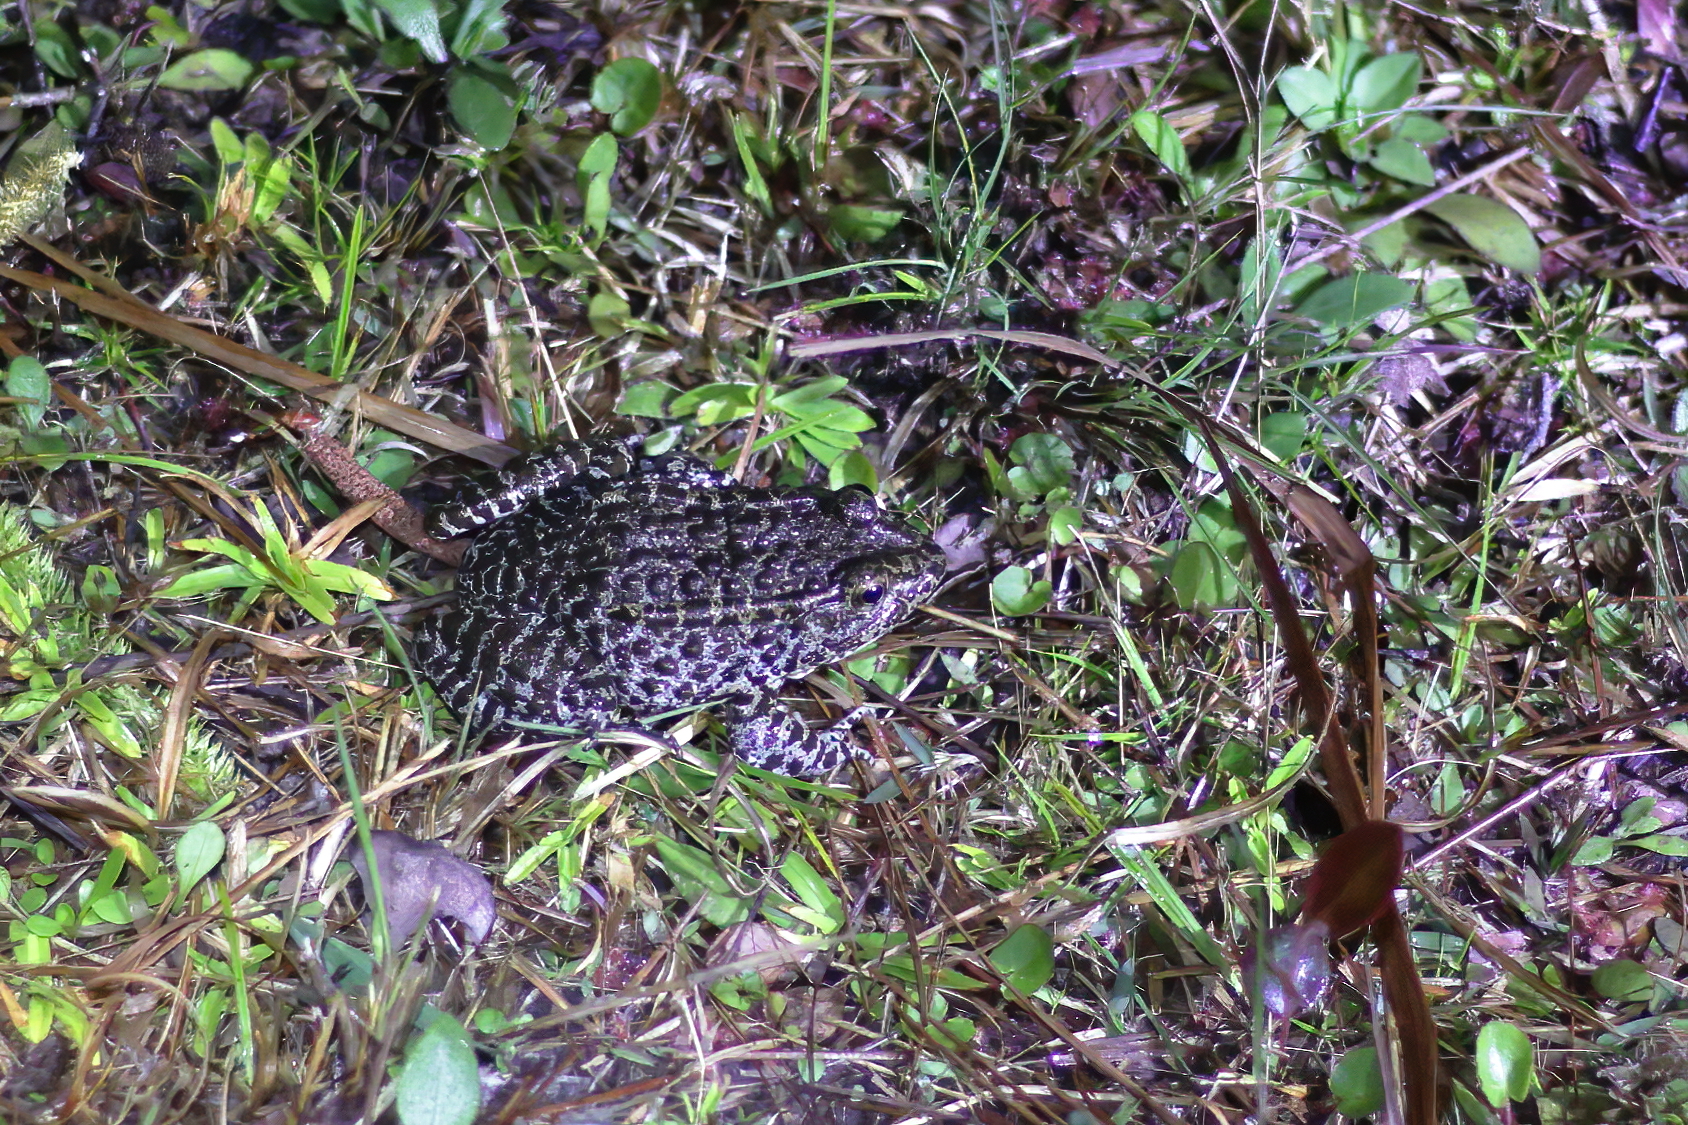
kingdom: Animalia
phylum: Chordata
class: Amphibia
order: Anura
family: Ranidae
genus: Lithobates
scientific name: Lithobates sevosus
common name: Dusky gopher frog
